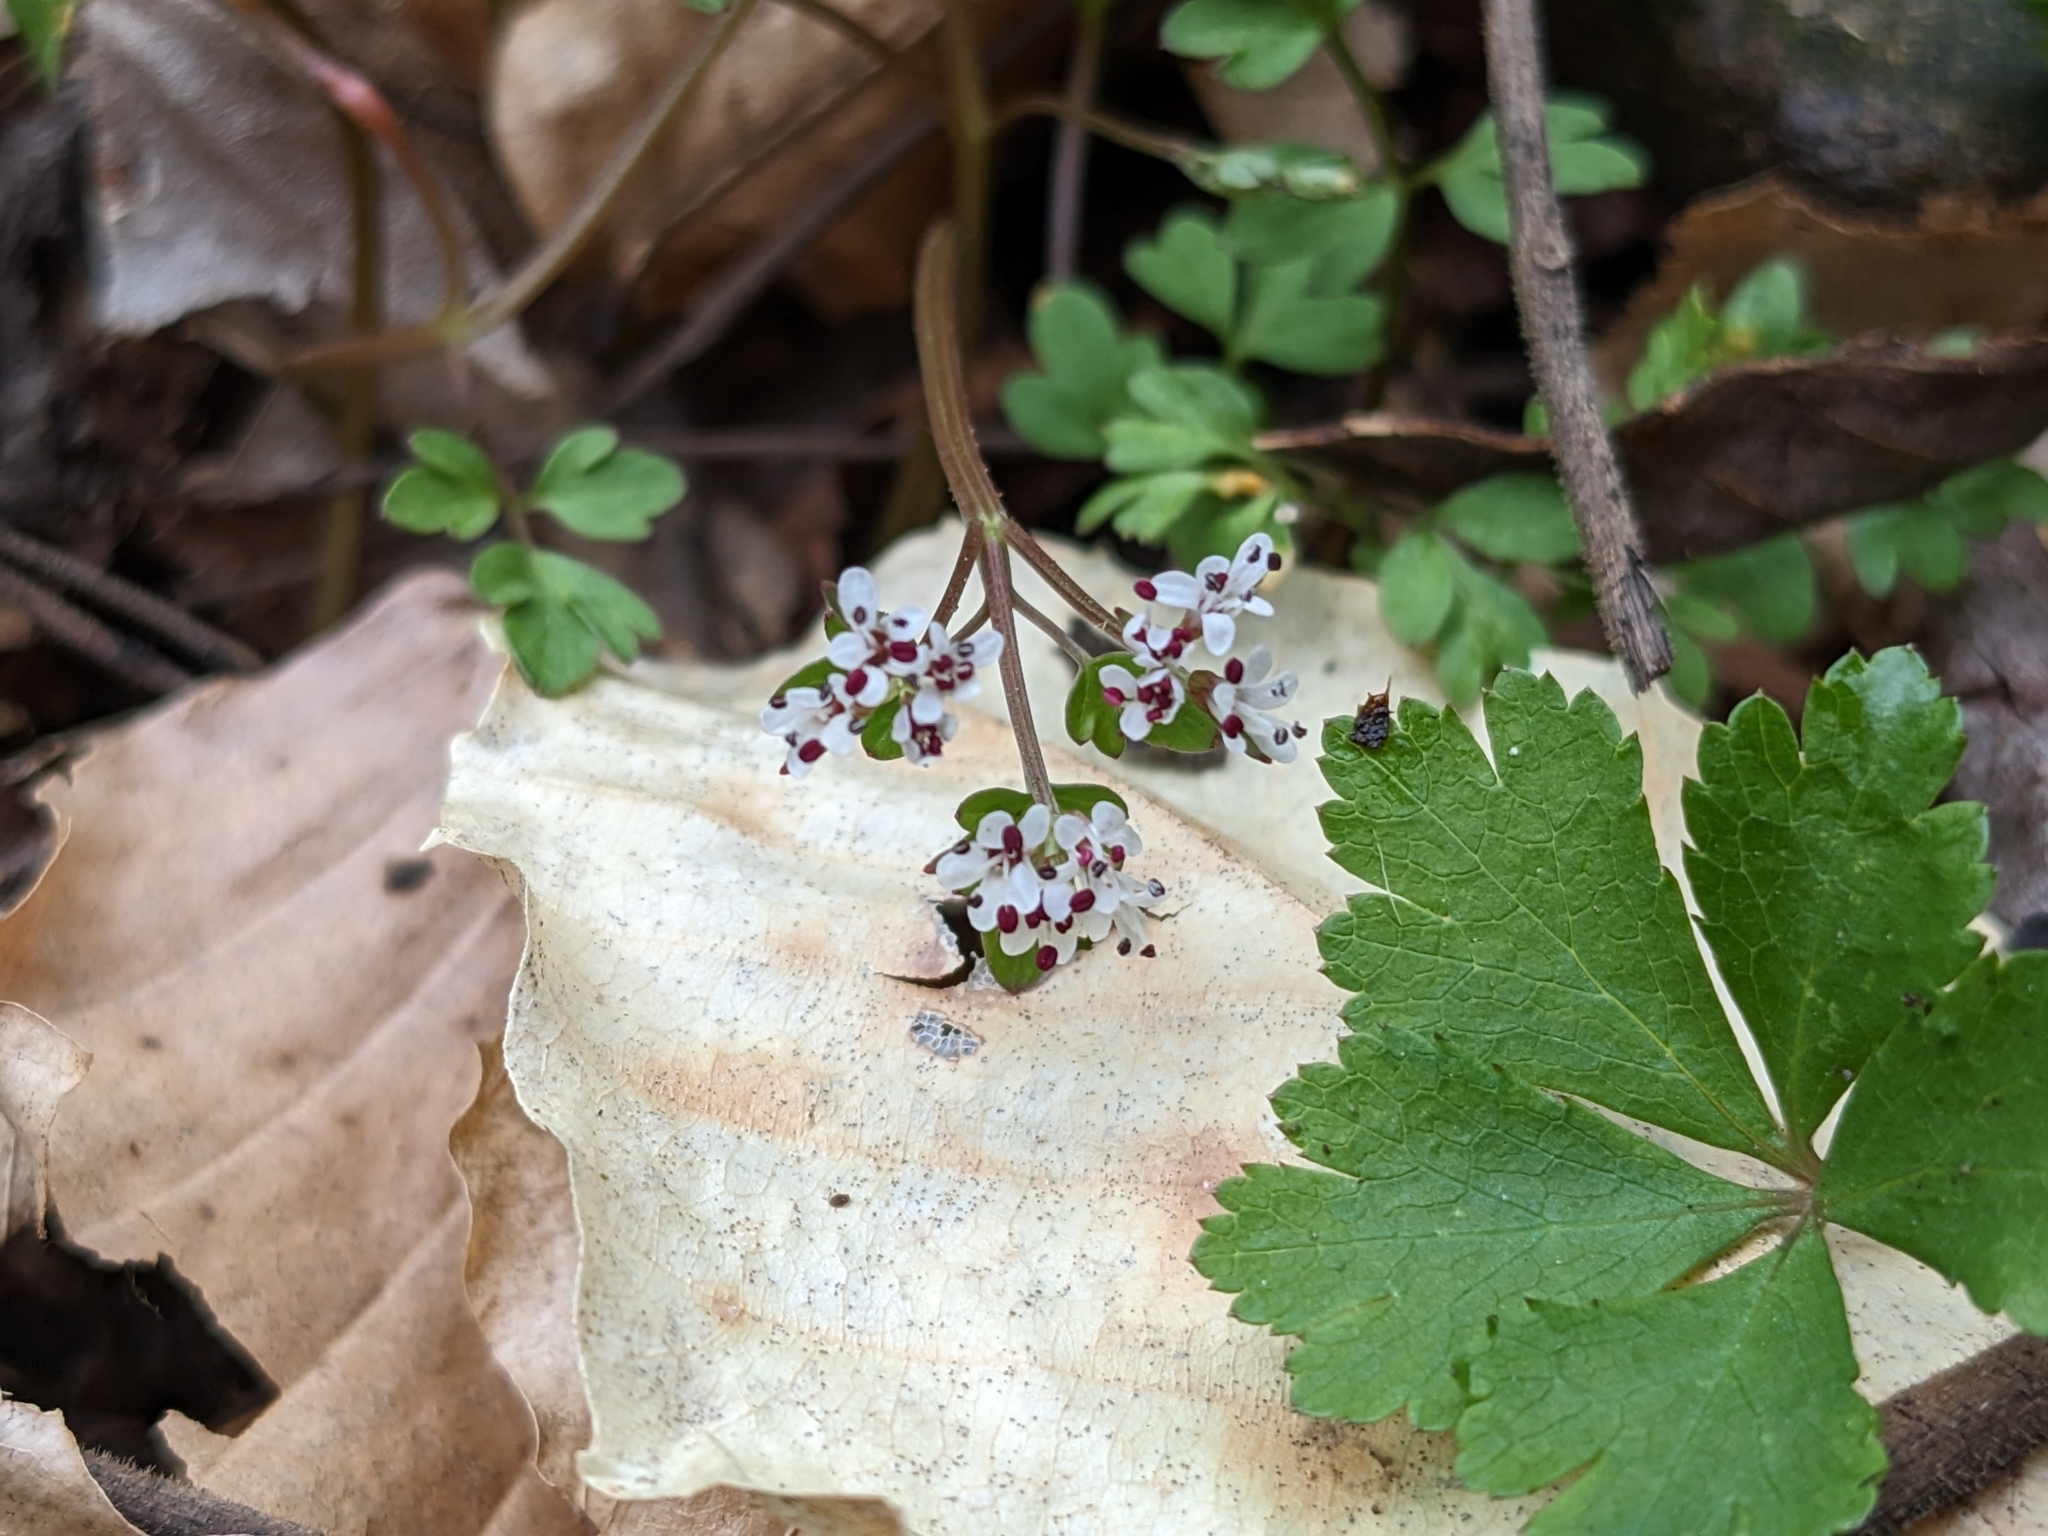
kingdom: Plantae
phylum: Tracheophyta
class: Magnoliopsida
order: Apiales
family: Apiaceae
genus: Erigenia
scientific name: Erigenia bulbosa
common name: Pepper-and-salt
